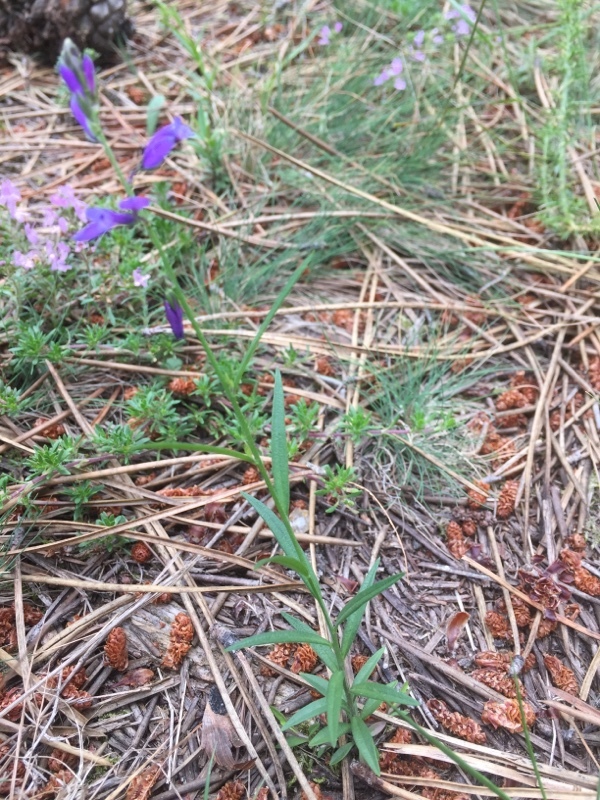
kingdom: Plantae
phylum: Tracheophyta
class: Magnoliopsida
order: Fabales
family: Polygalaceae
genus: Polygala
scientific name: Polygala vulgaris
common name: Common milkwort
